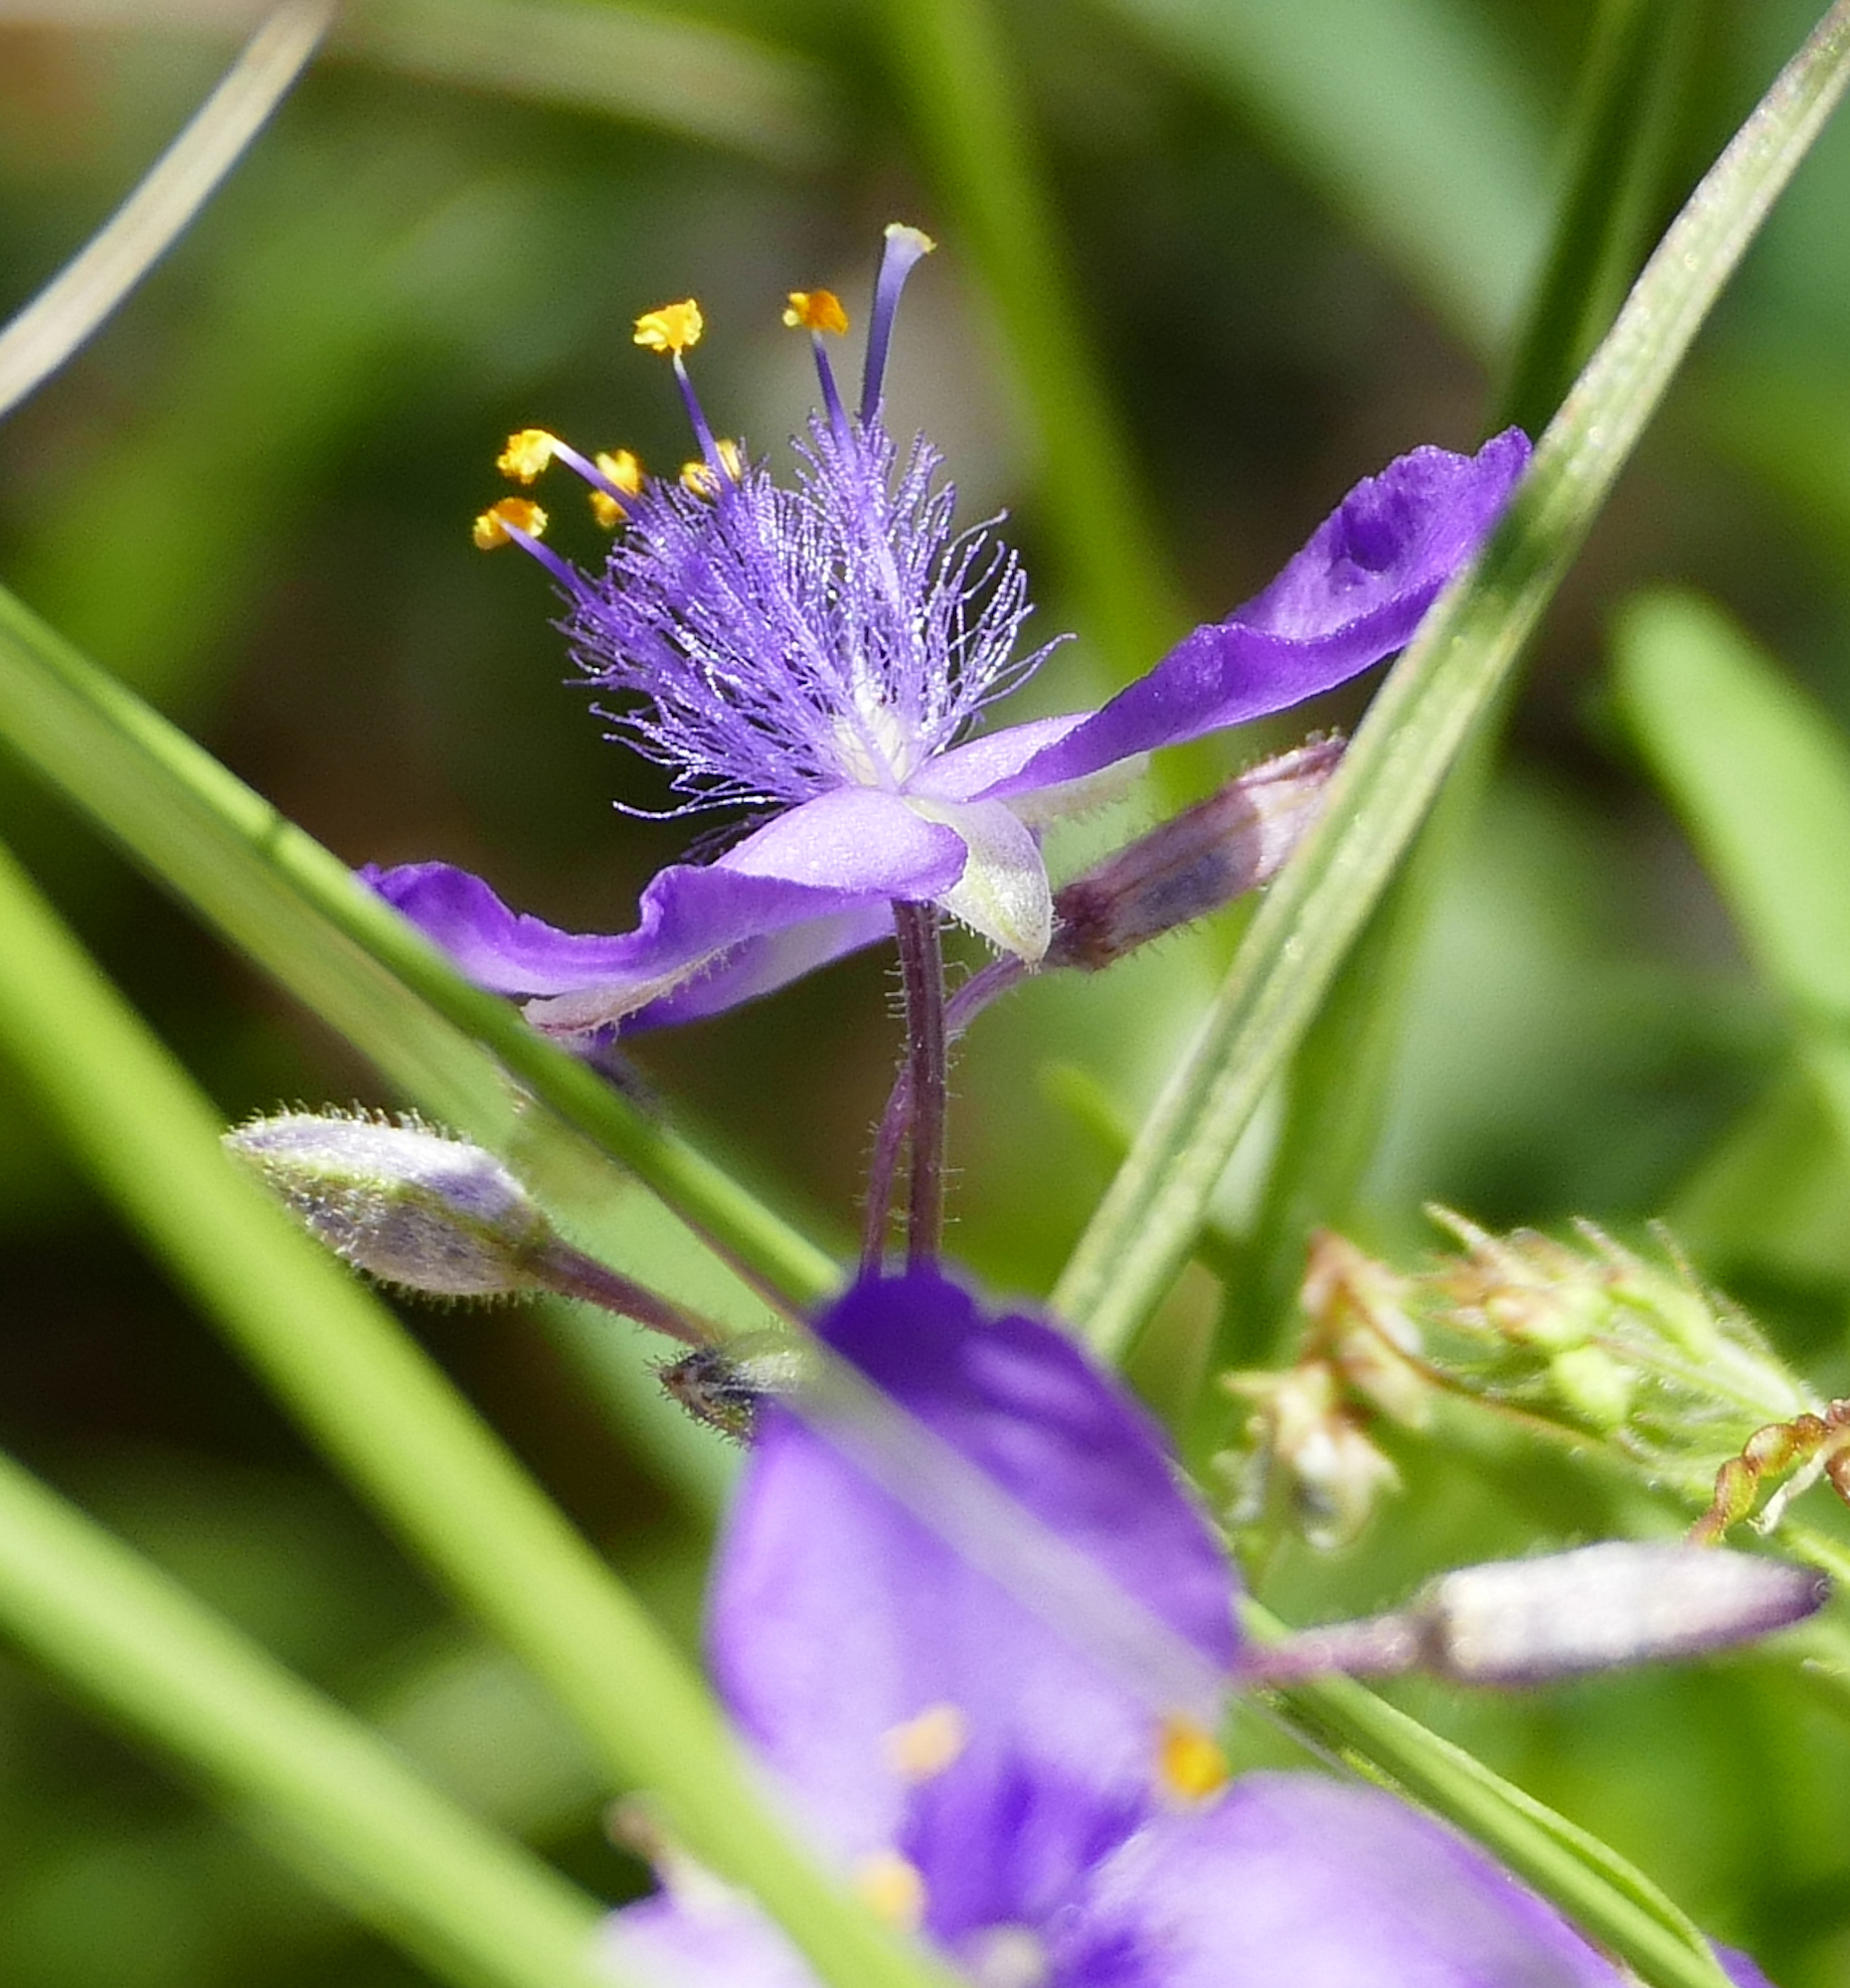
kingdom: Plantae
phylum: Tracheophyta
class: Liliopsida
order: Commelinales
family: Commelinaceae
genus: Tradescantia
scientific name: Tradescantia pinetorum
